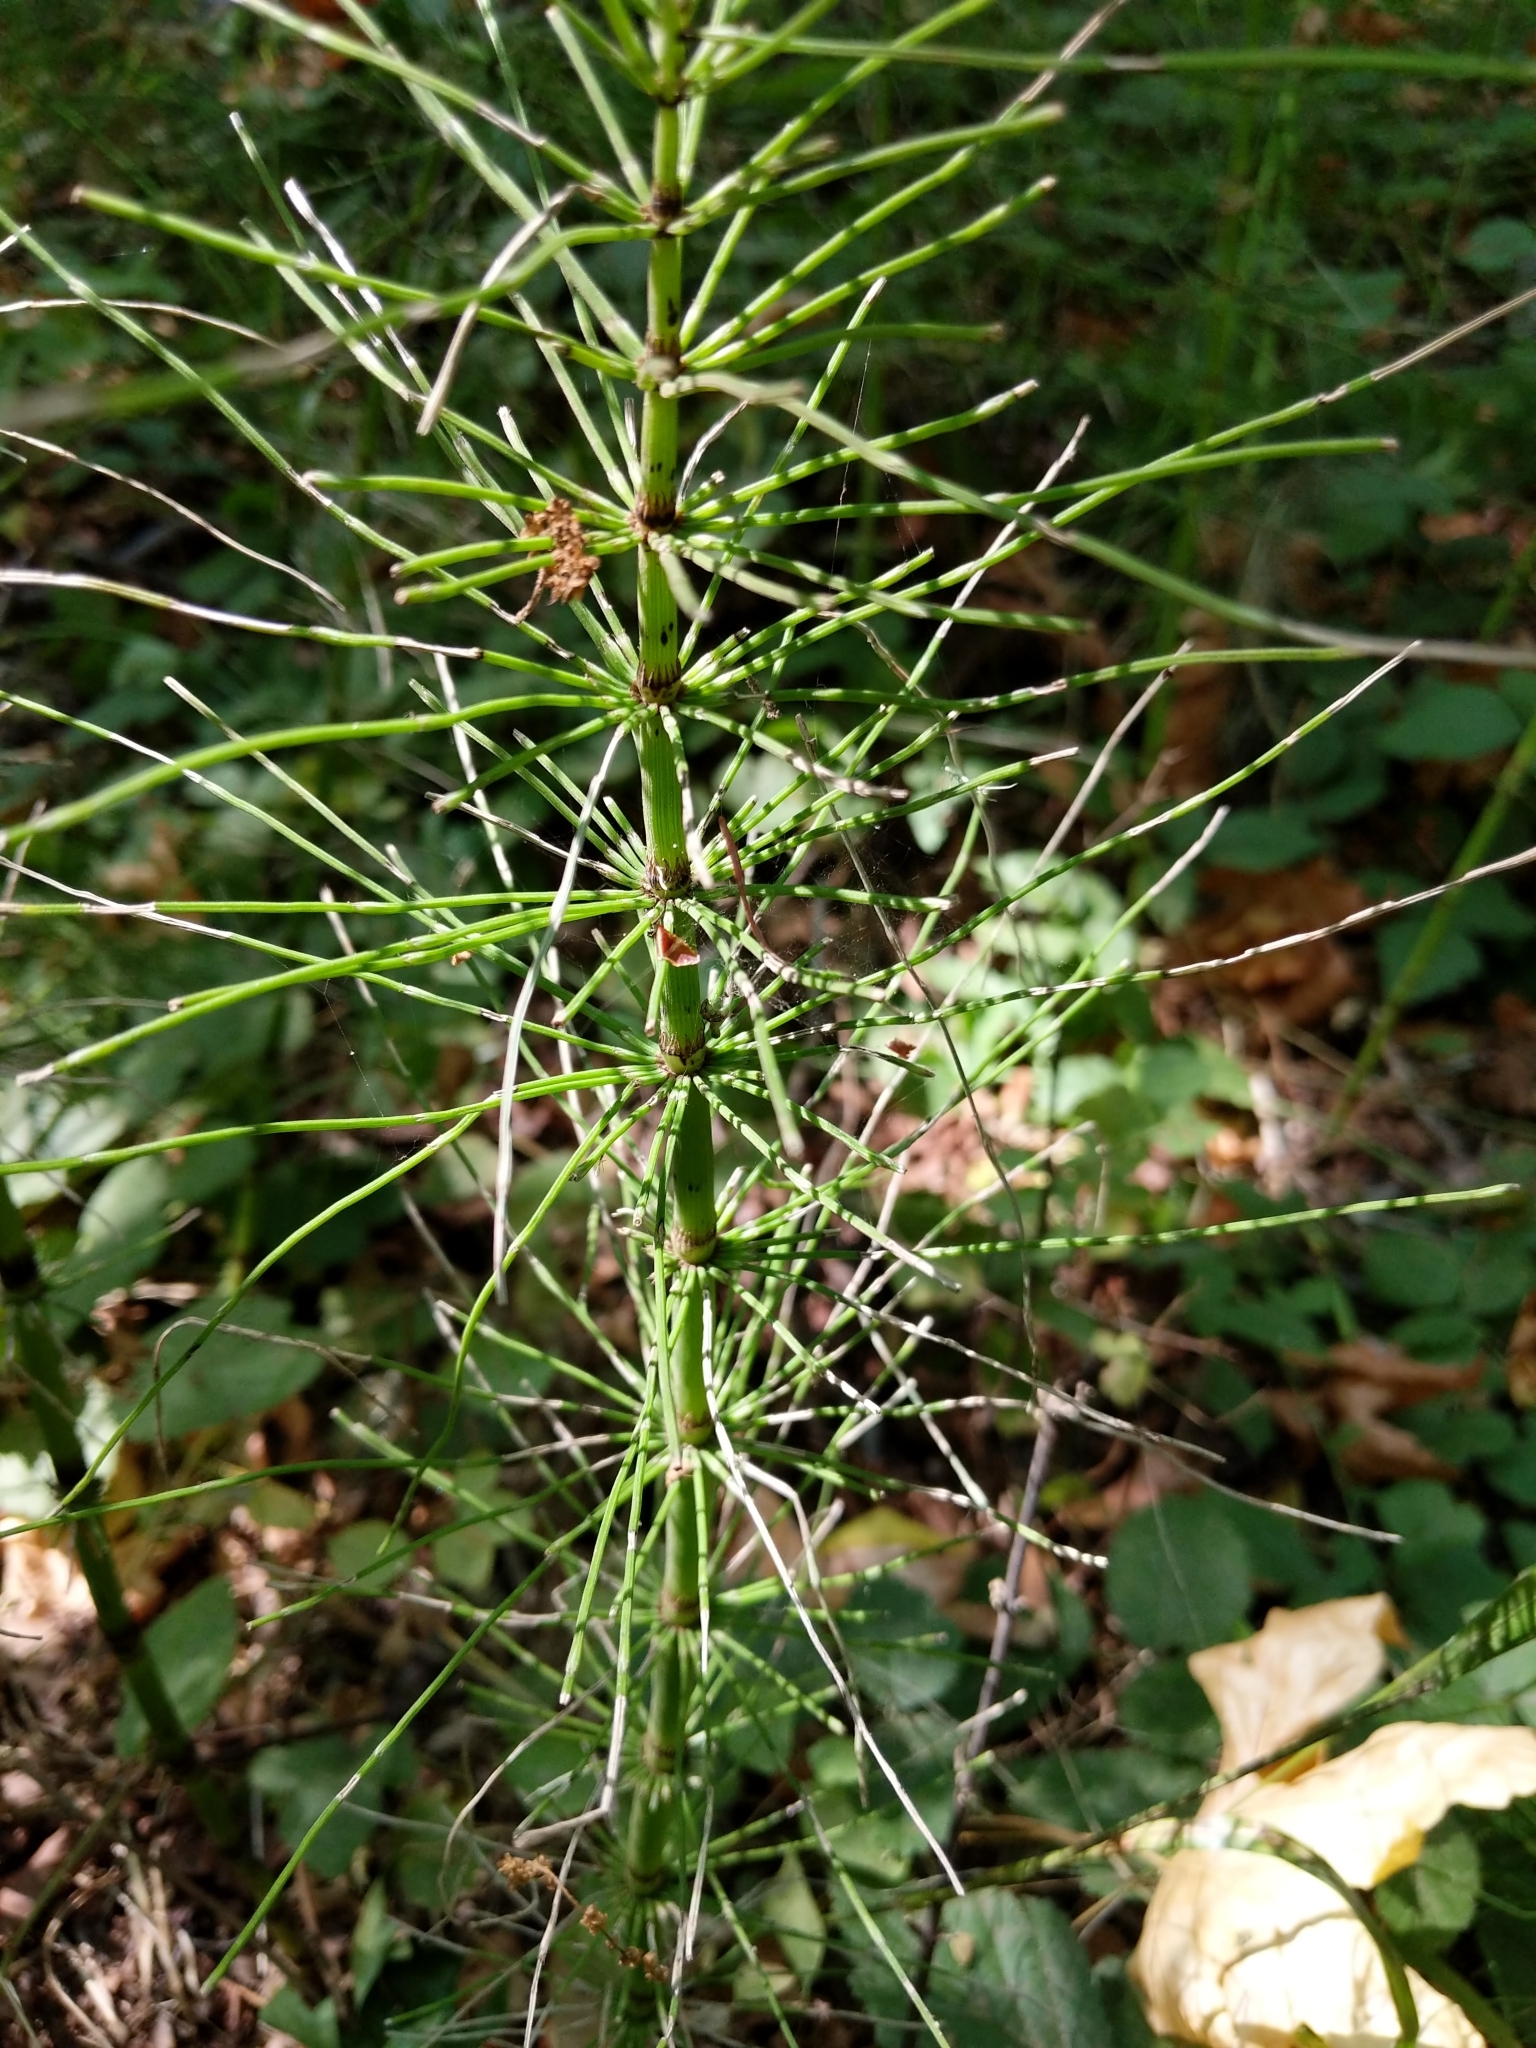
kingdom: Plantae
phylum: Tracheophyta
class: Polypodiopsida
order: Equisetales
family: Equisetaceae
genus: Equisetum
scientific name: Equisetum telmateia
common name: Great horsetail
